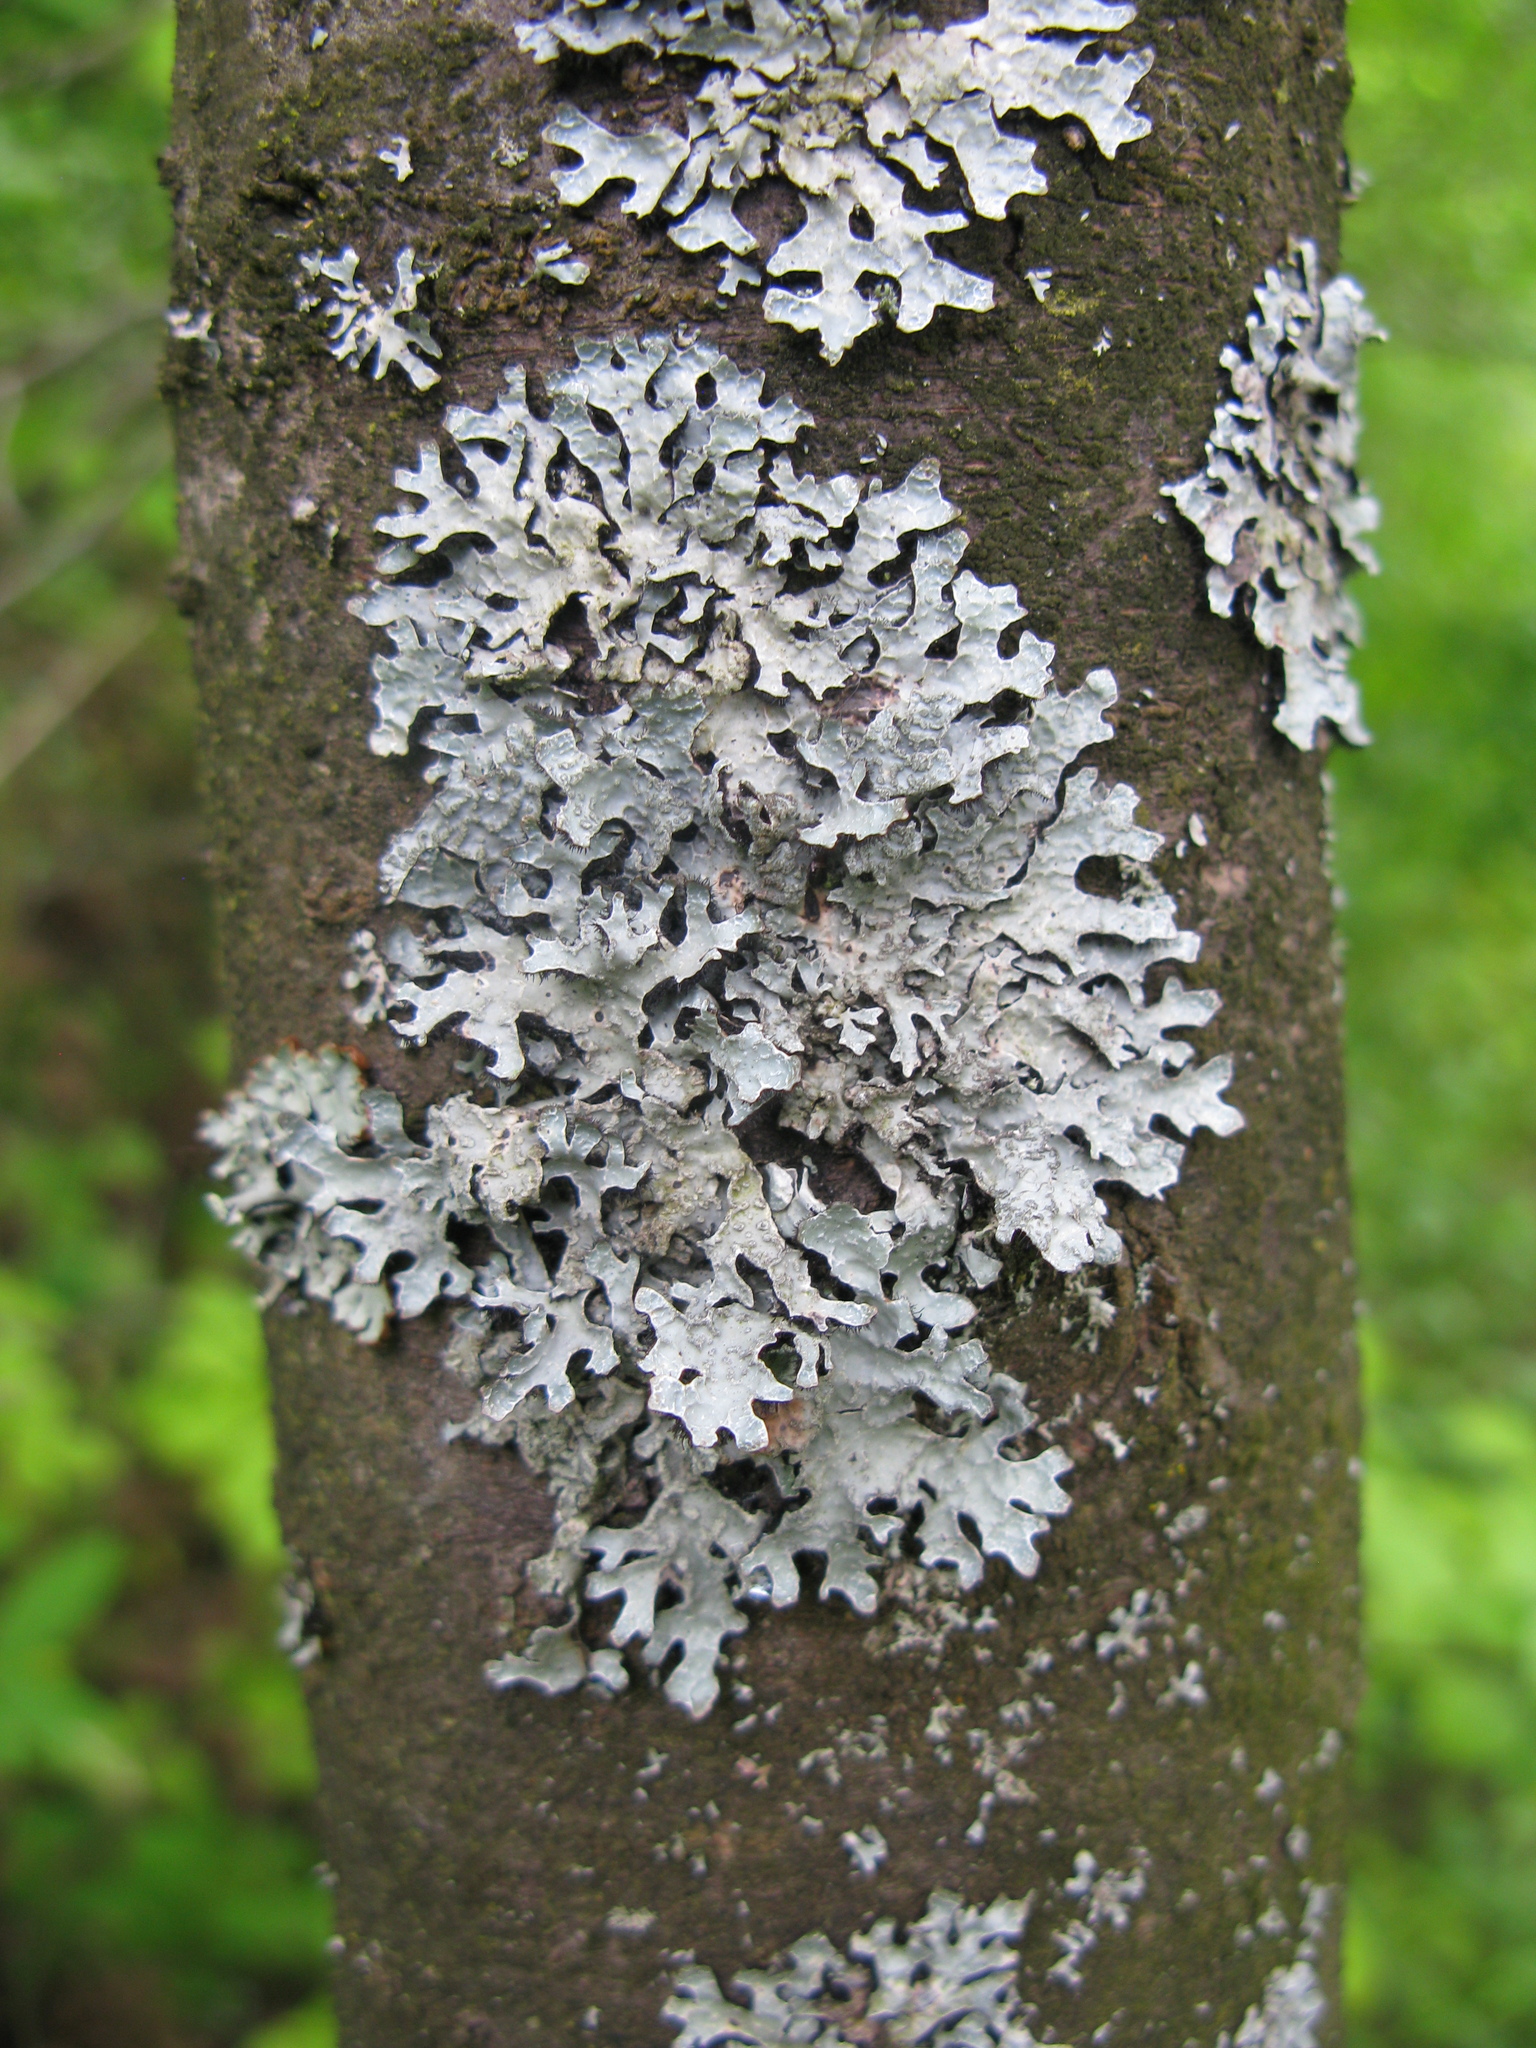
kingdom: Fungi
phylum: Ascomycota
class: Lecanoromycetes
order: Lecanorales
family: Parmeliaceae
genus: Parmelia
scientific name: Parmelia sulcata
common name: Netted shield lichen
